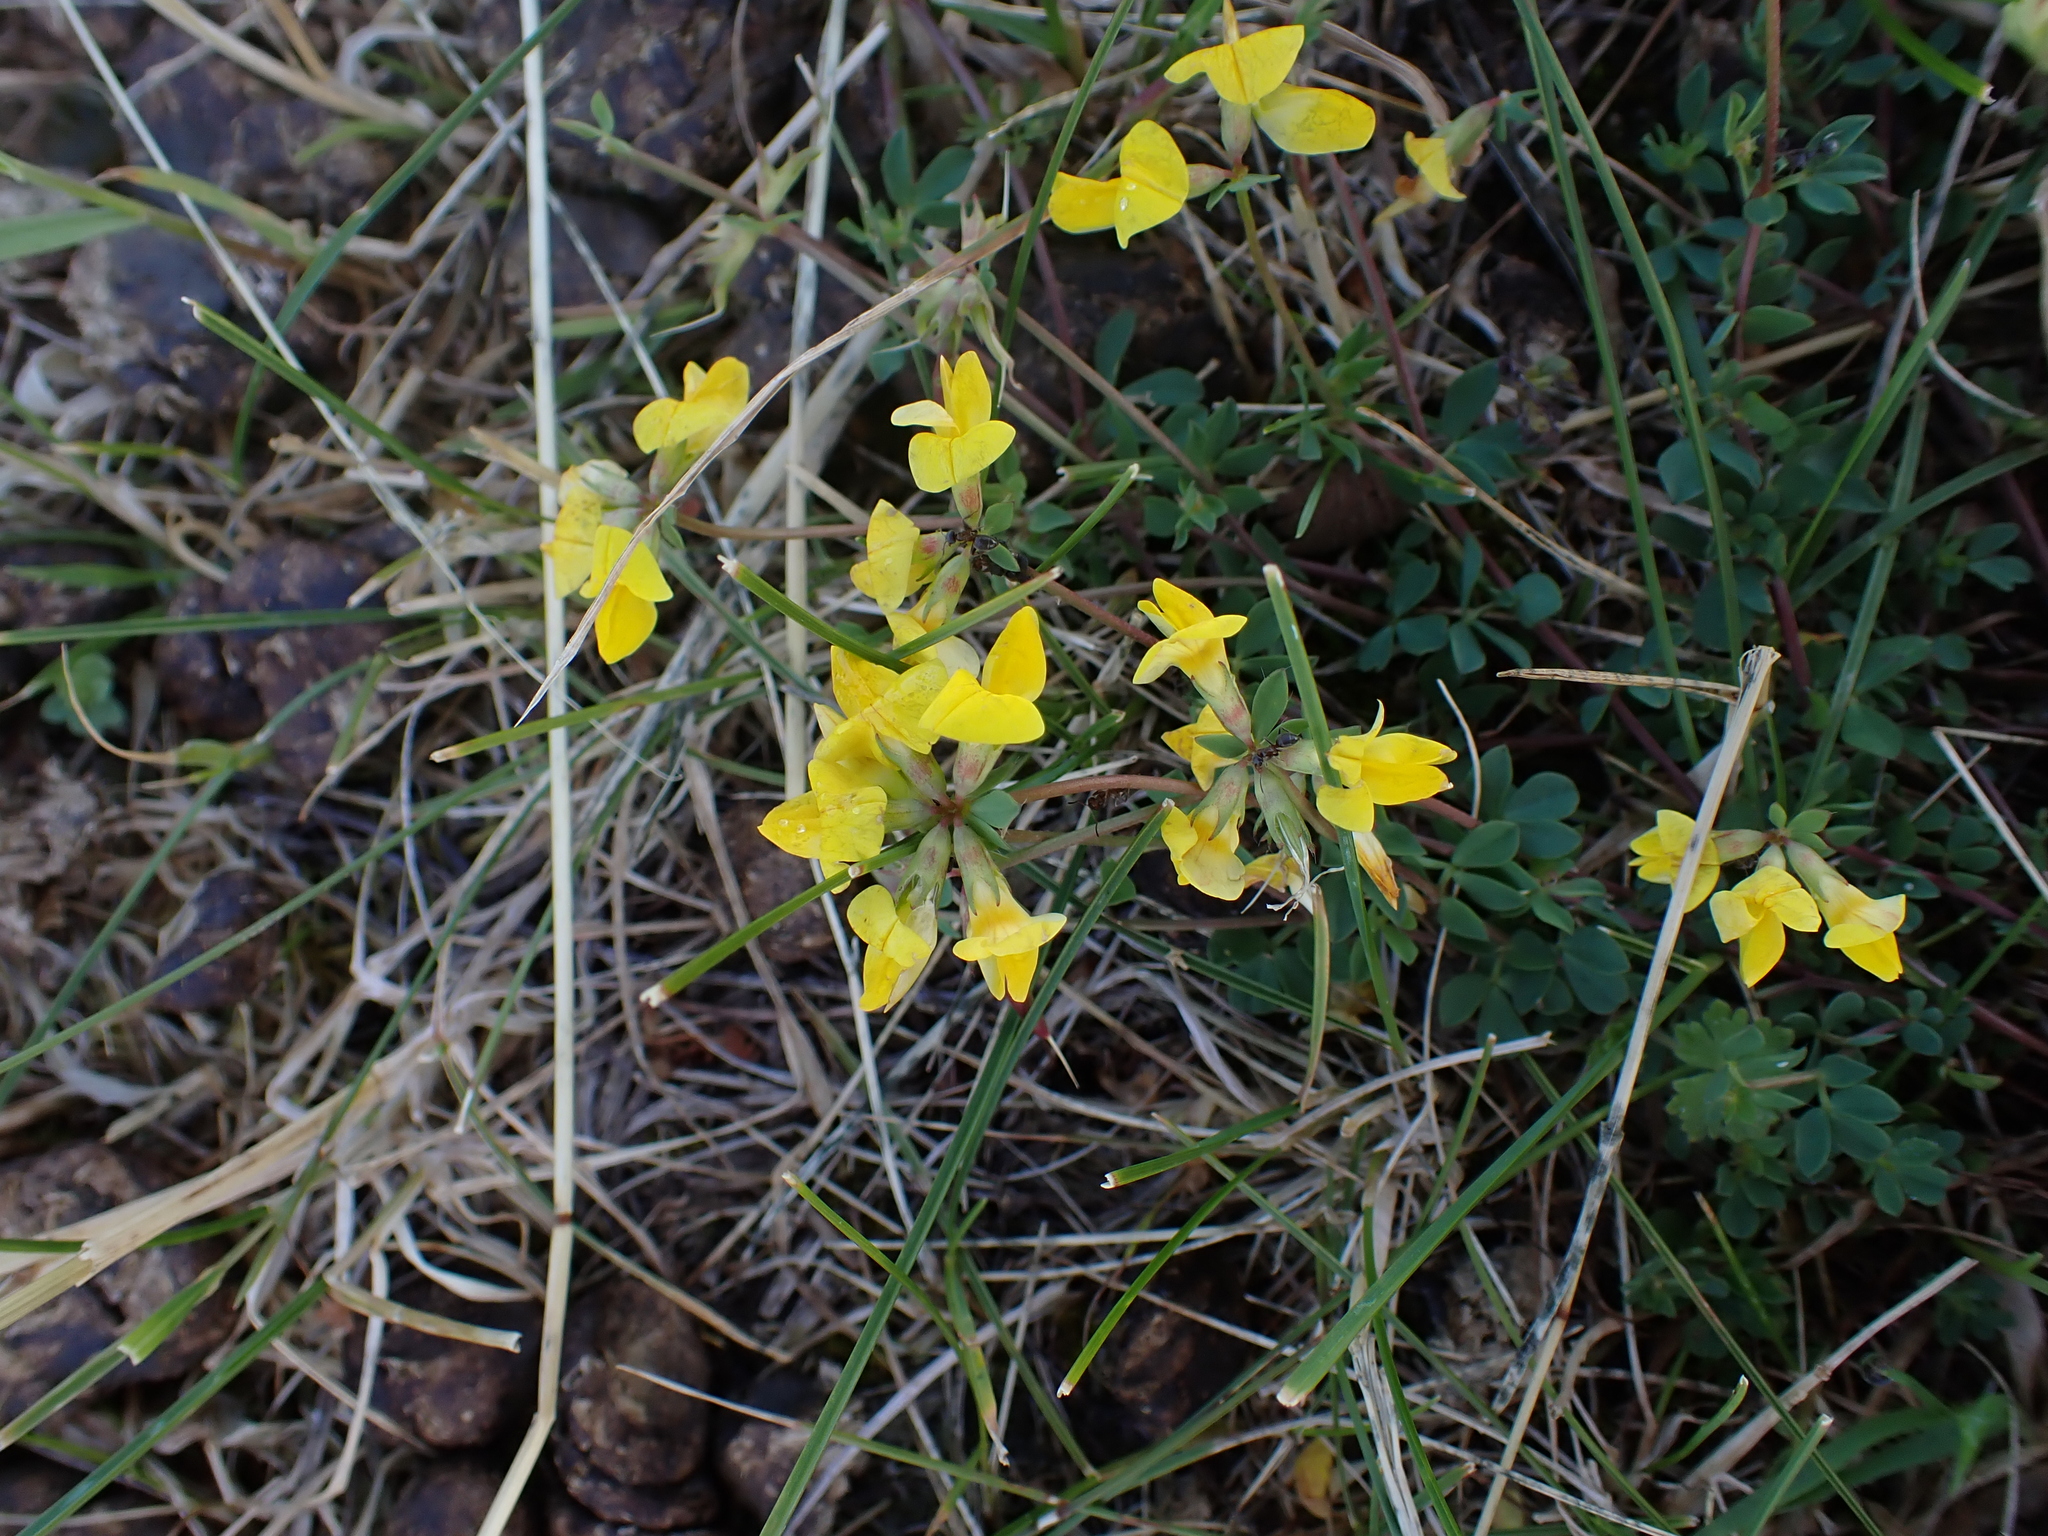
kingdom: Plantae
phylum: Tracheophyta
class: Magnoliopsida
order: Fabales
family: Fabaceae
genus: Lotus
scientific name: Lotus corniculatus
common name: Common bird's-foot-trefoil
